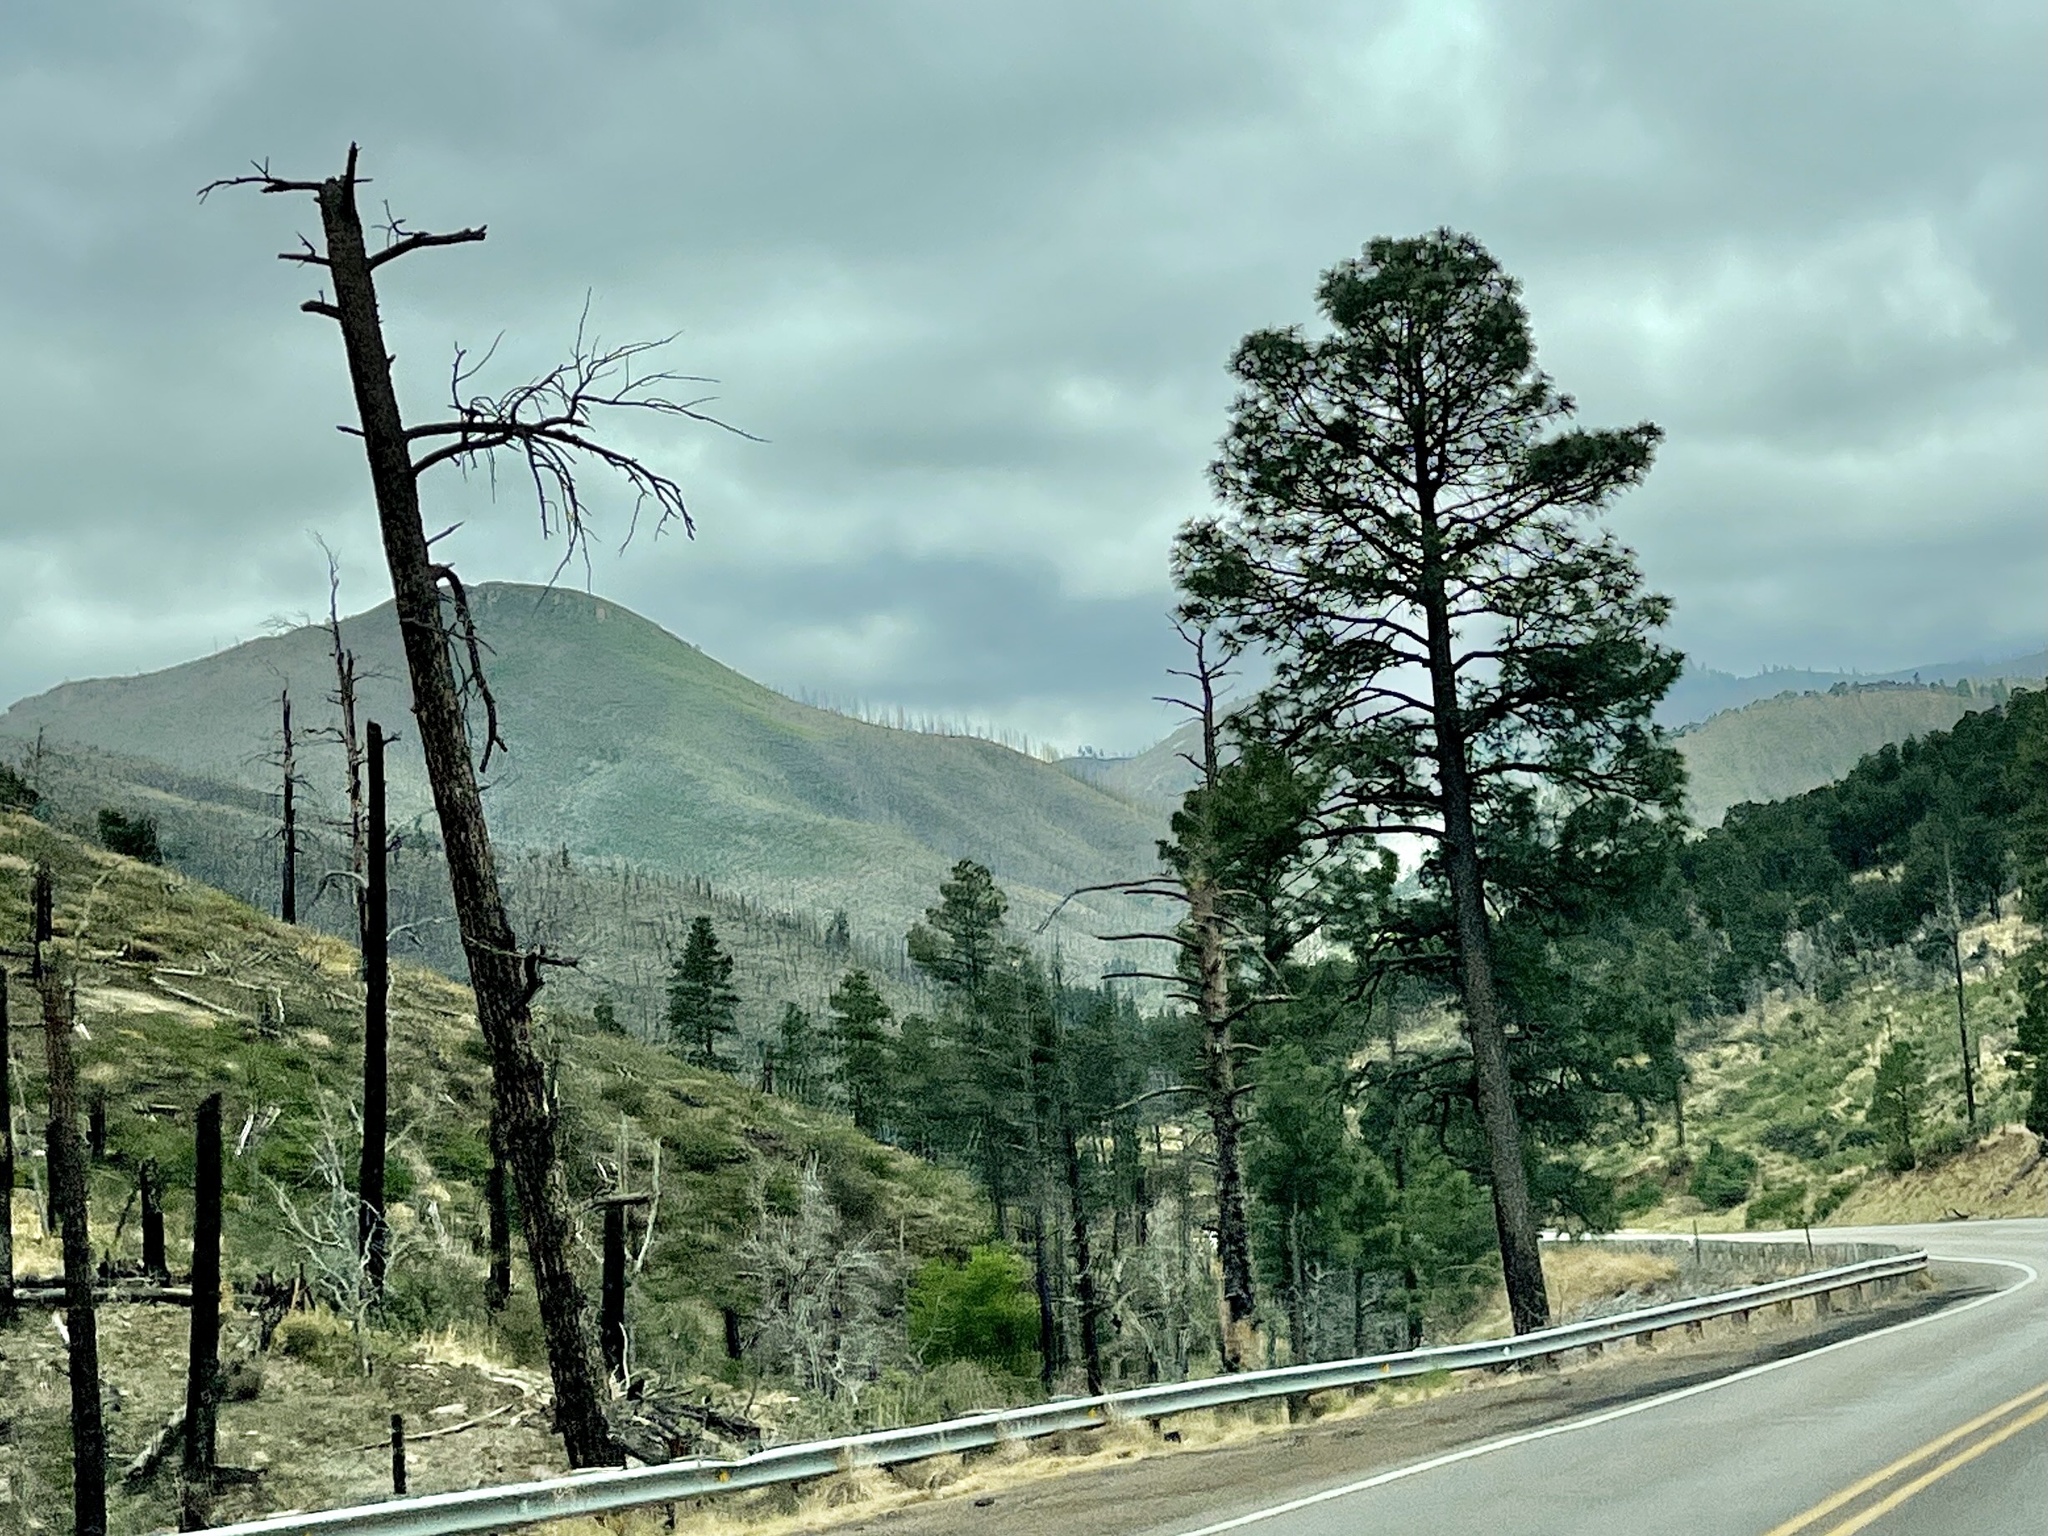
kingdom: Plantae
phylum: Tracheophyta
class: Pinopsida
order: Pinales
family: Pinaceae
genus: Pinus
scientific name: Pinus ponderosa
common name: Western yellow-pine
